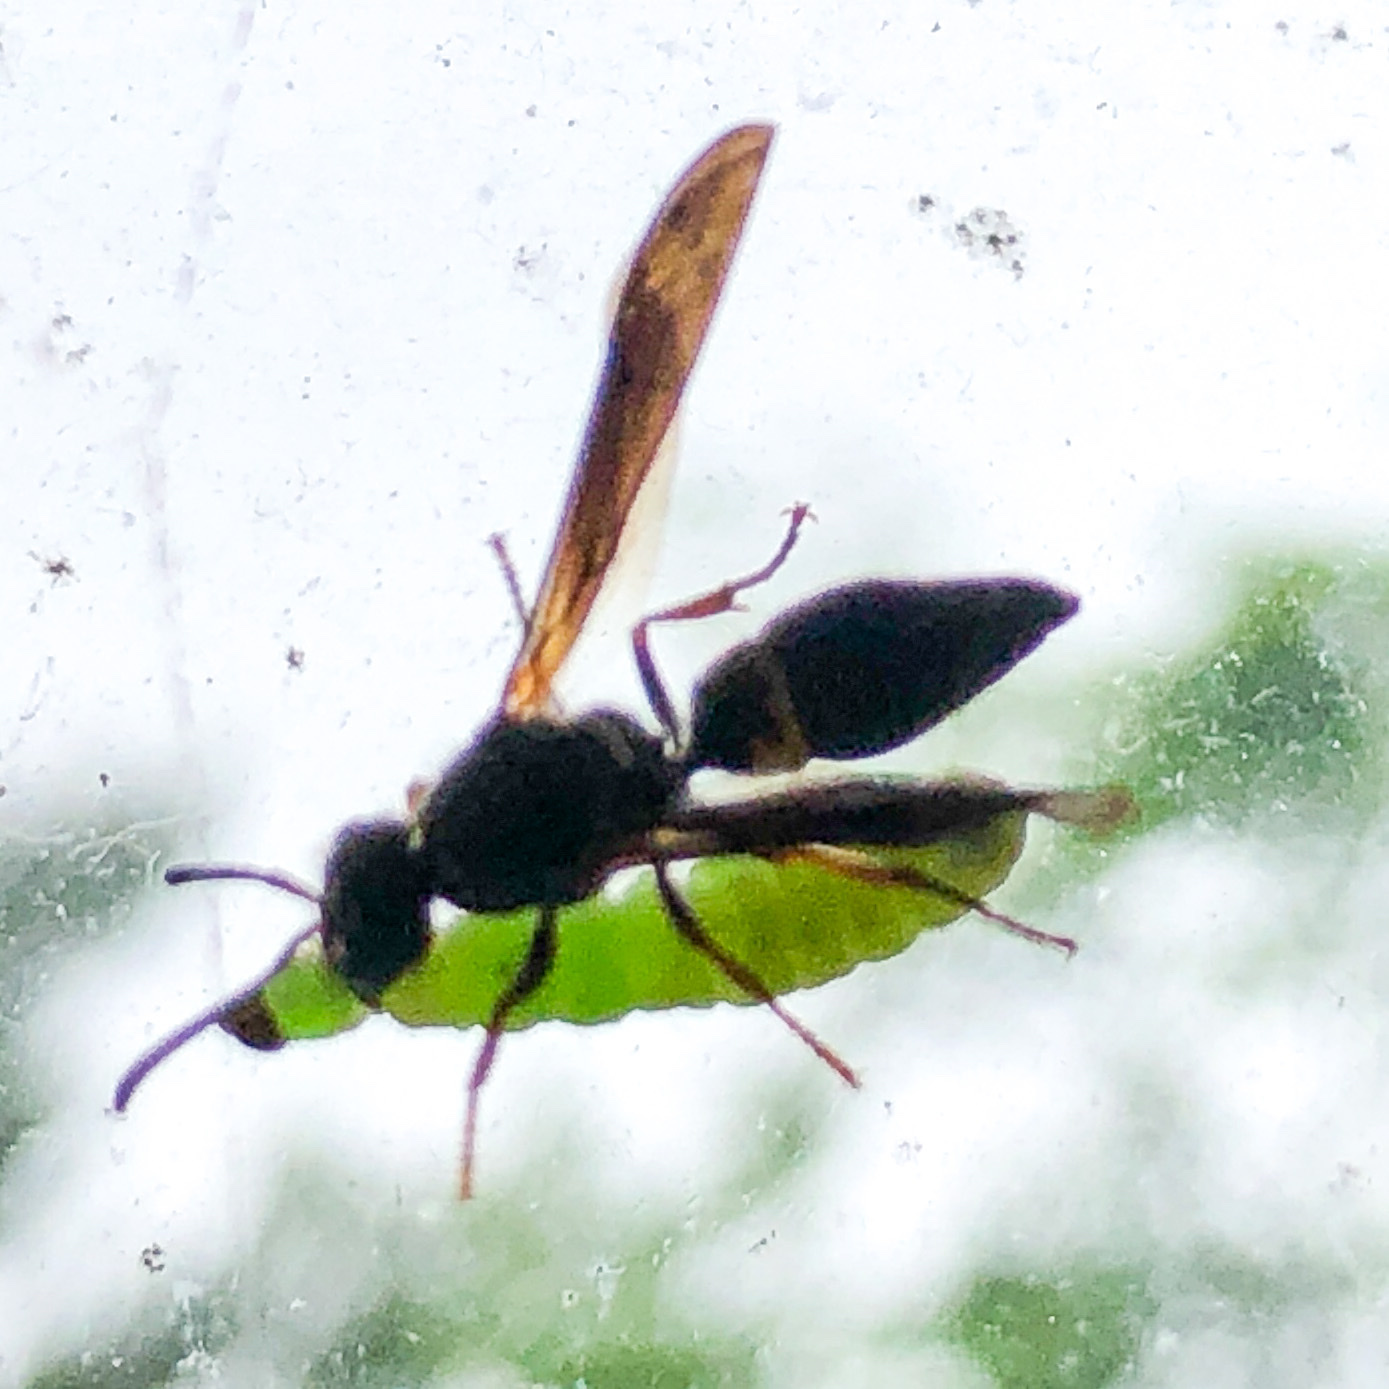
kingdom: Animalia
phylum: Arthropoda
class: Insecta
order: Hymenoptera
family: Vespidae
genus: Ancistrocerus
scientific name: Ancistrocerus unifasciatus
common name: One-banded mason wasp
